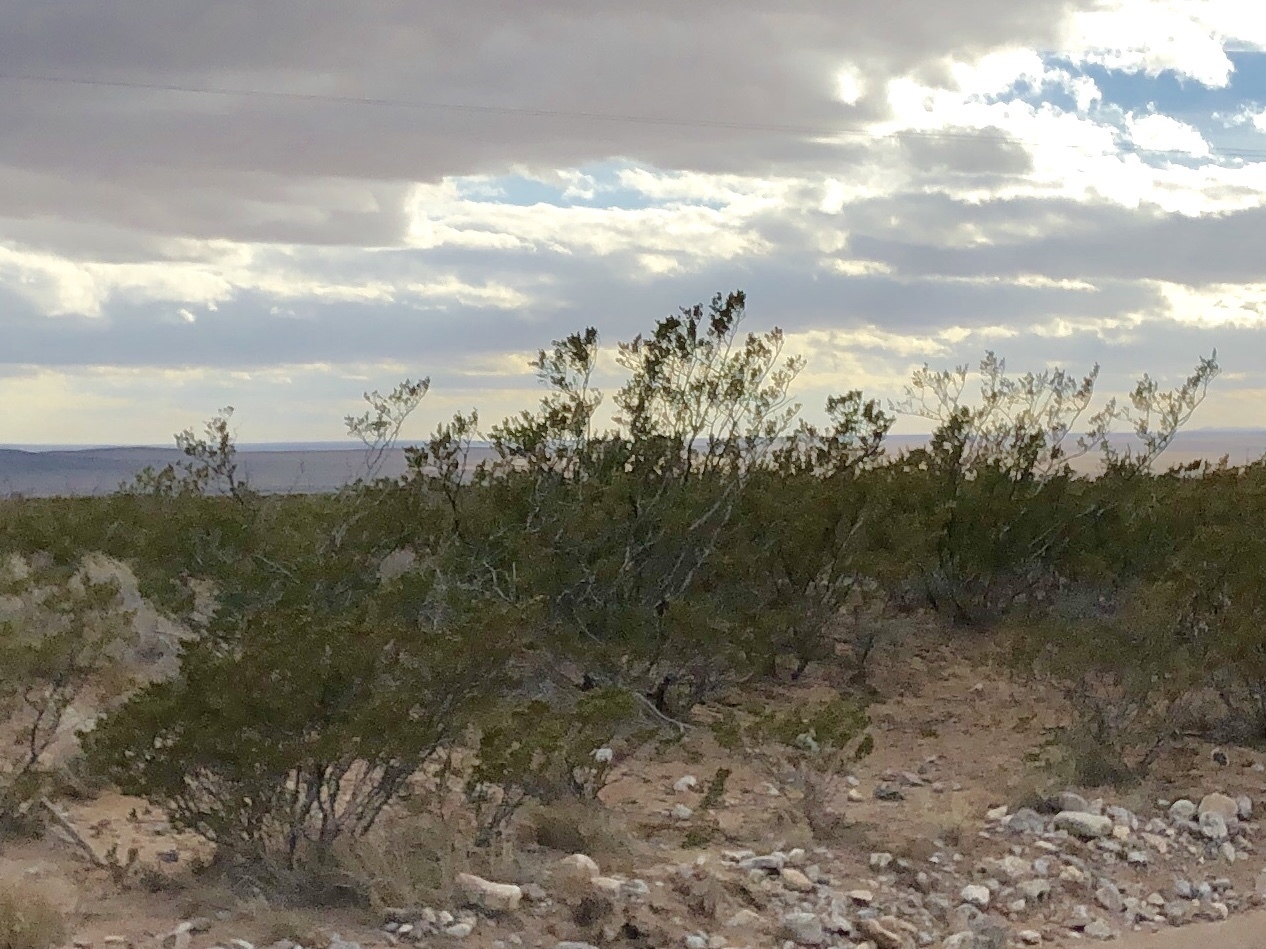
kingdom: Plantae
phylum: Tracheophyta
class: Magnoliopsida
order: Zygophyllales
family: Zygophyllaceae
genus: Larrea
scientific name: Larrea tridentata
